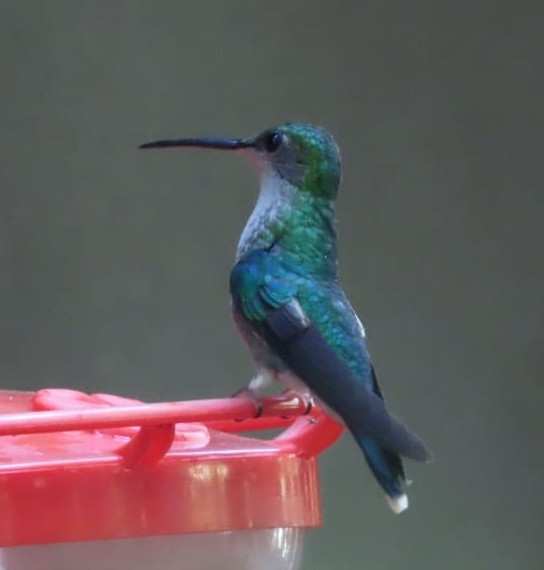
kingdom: Animalia
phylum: Chordata
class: Aves
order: Apodiformes
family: Trochilidae
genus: Thalurania
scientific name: Thalurania colombica
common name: Crowned woodnymph
